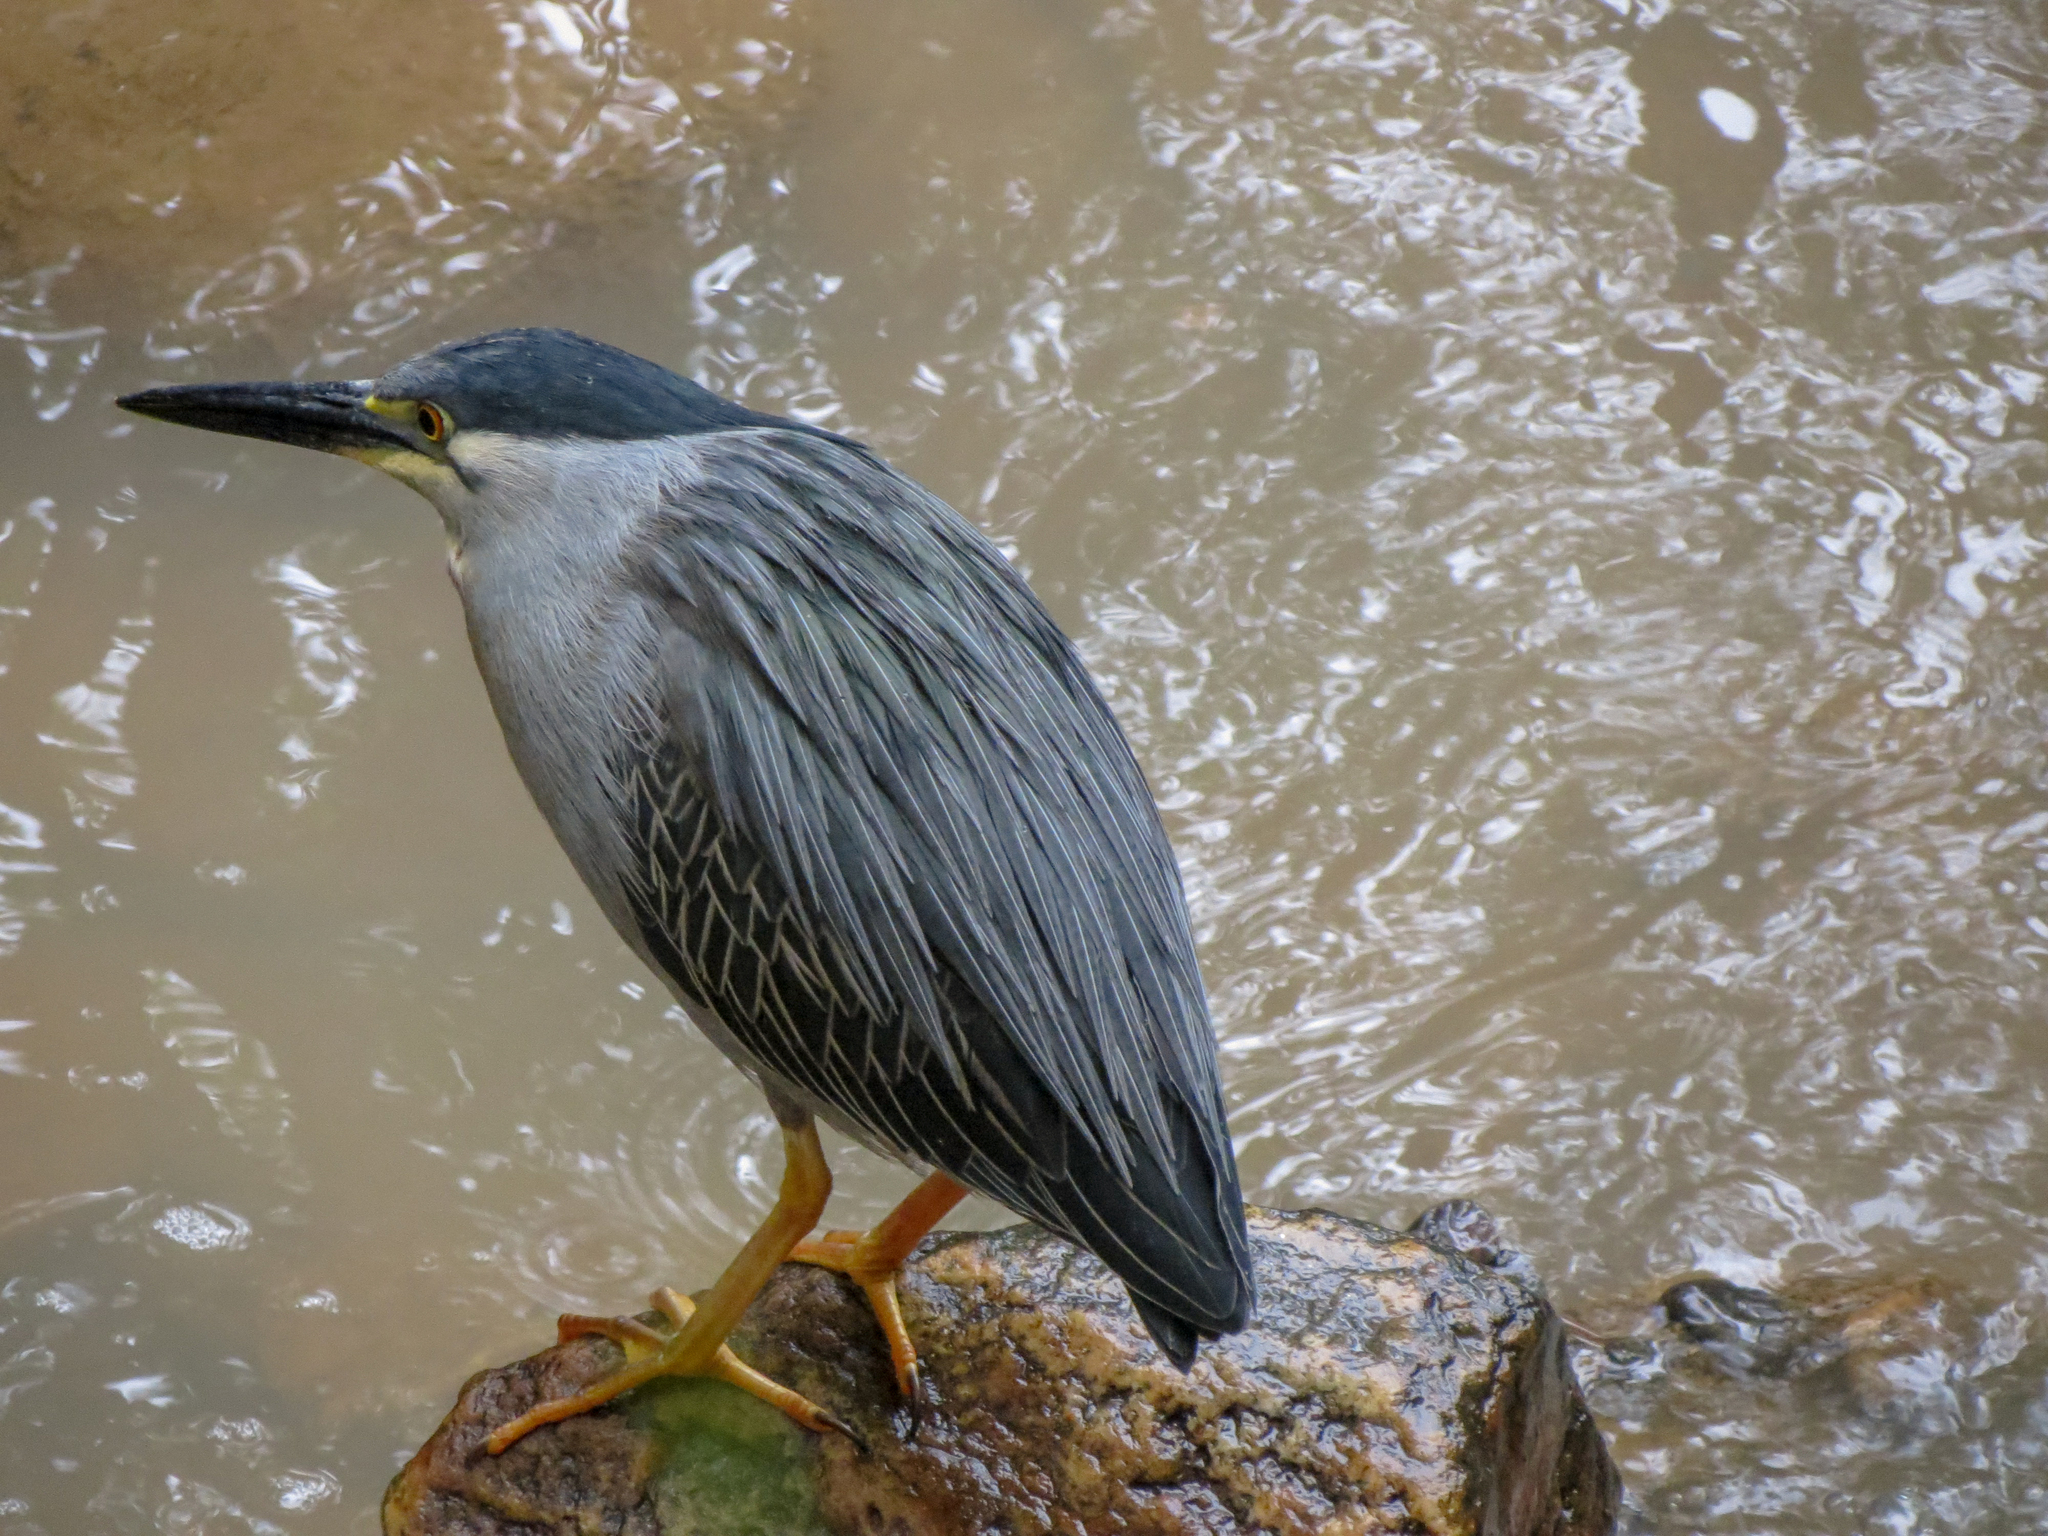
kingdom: Animalia
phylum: Chordata
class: Aves
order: Pelecaniformes
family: Ardeidae
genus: Butorides
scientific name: Butorides striata
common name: Striated heron
